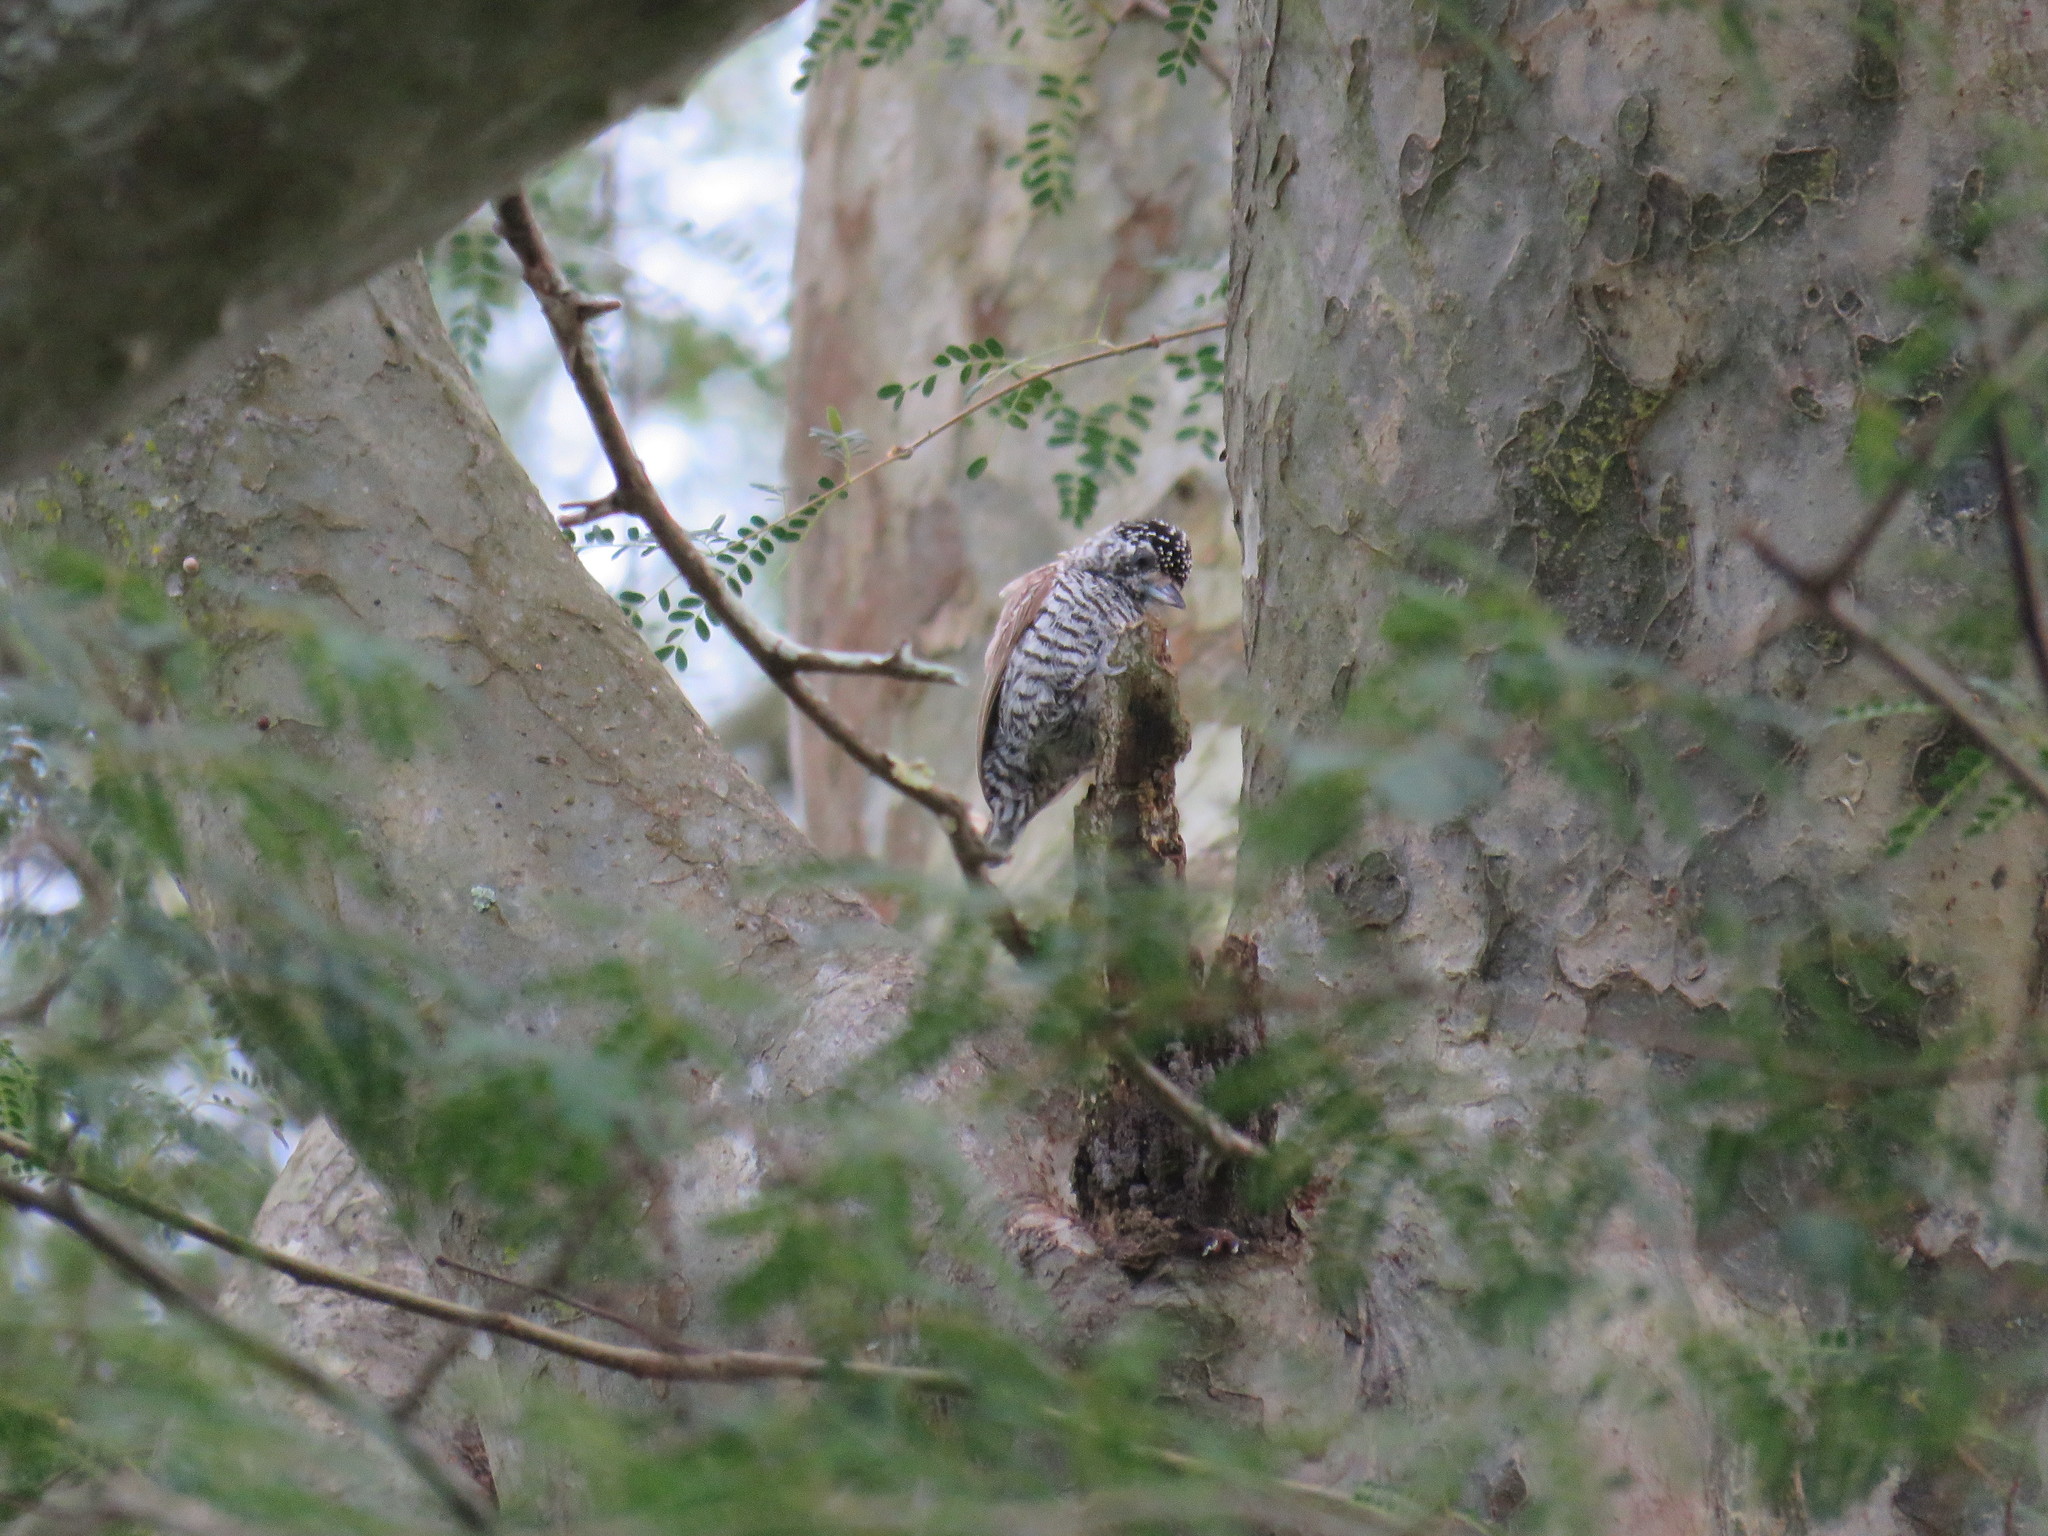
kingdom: Animalia
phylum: Chordata
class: Aves
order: Piciformes
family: Picidae
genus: Picumnus
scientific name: Picumnus cirratus
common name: White-barred piculet
